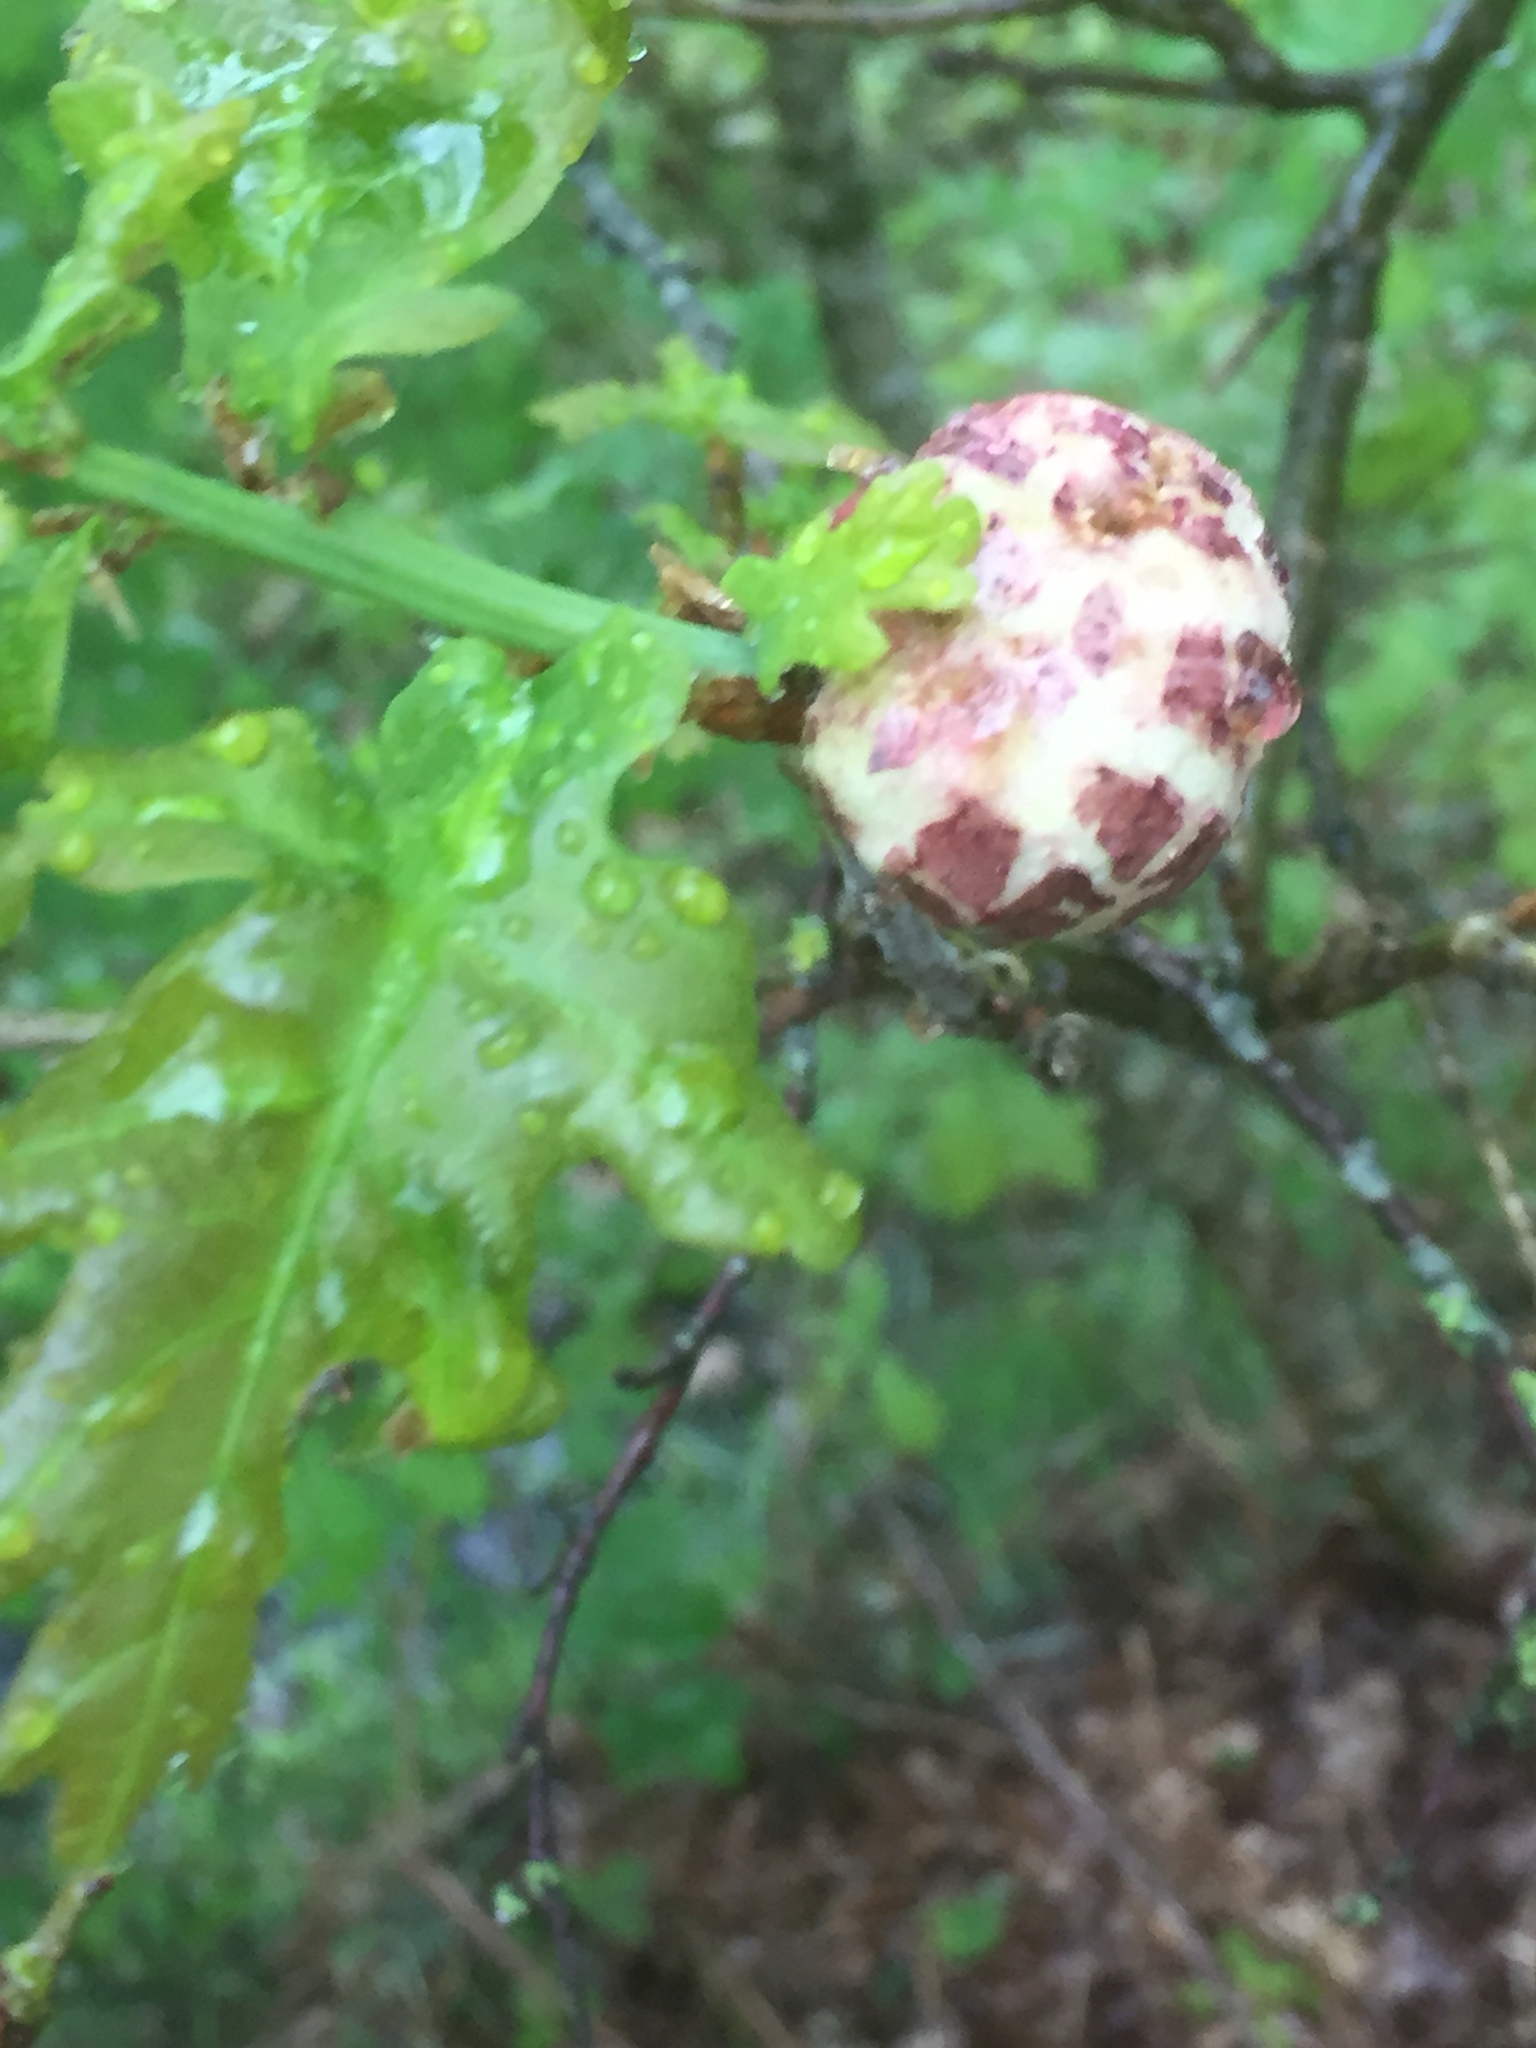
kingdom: Animalia
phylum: Arthropoda
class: Insecta
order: Hymenoptera
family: Cynipidae
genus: Biorhiza
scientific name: Biorhiza pallida
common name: Oak apple
